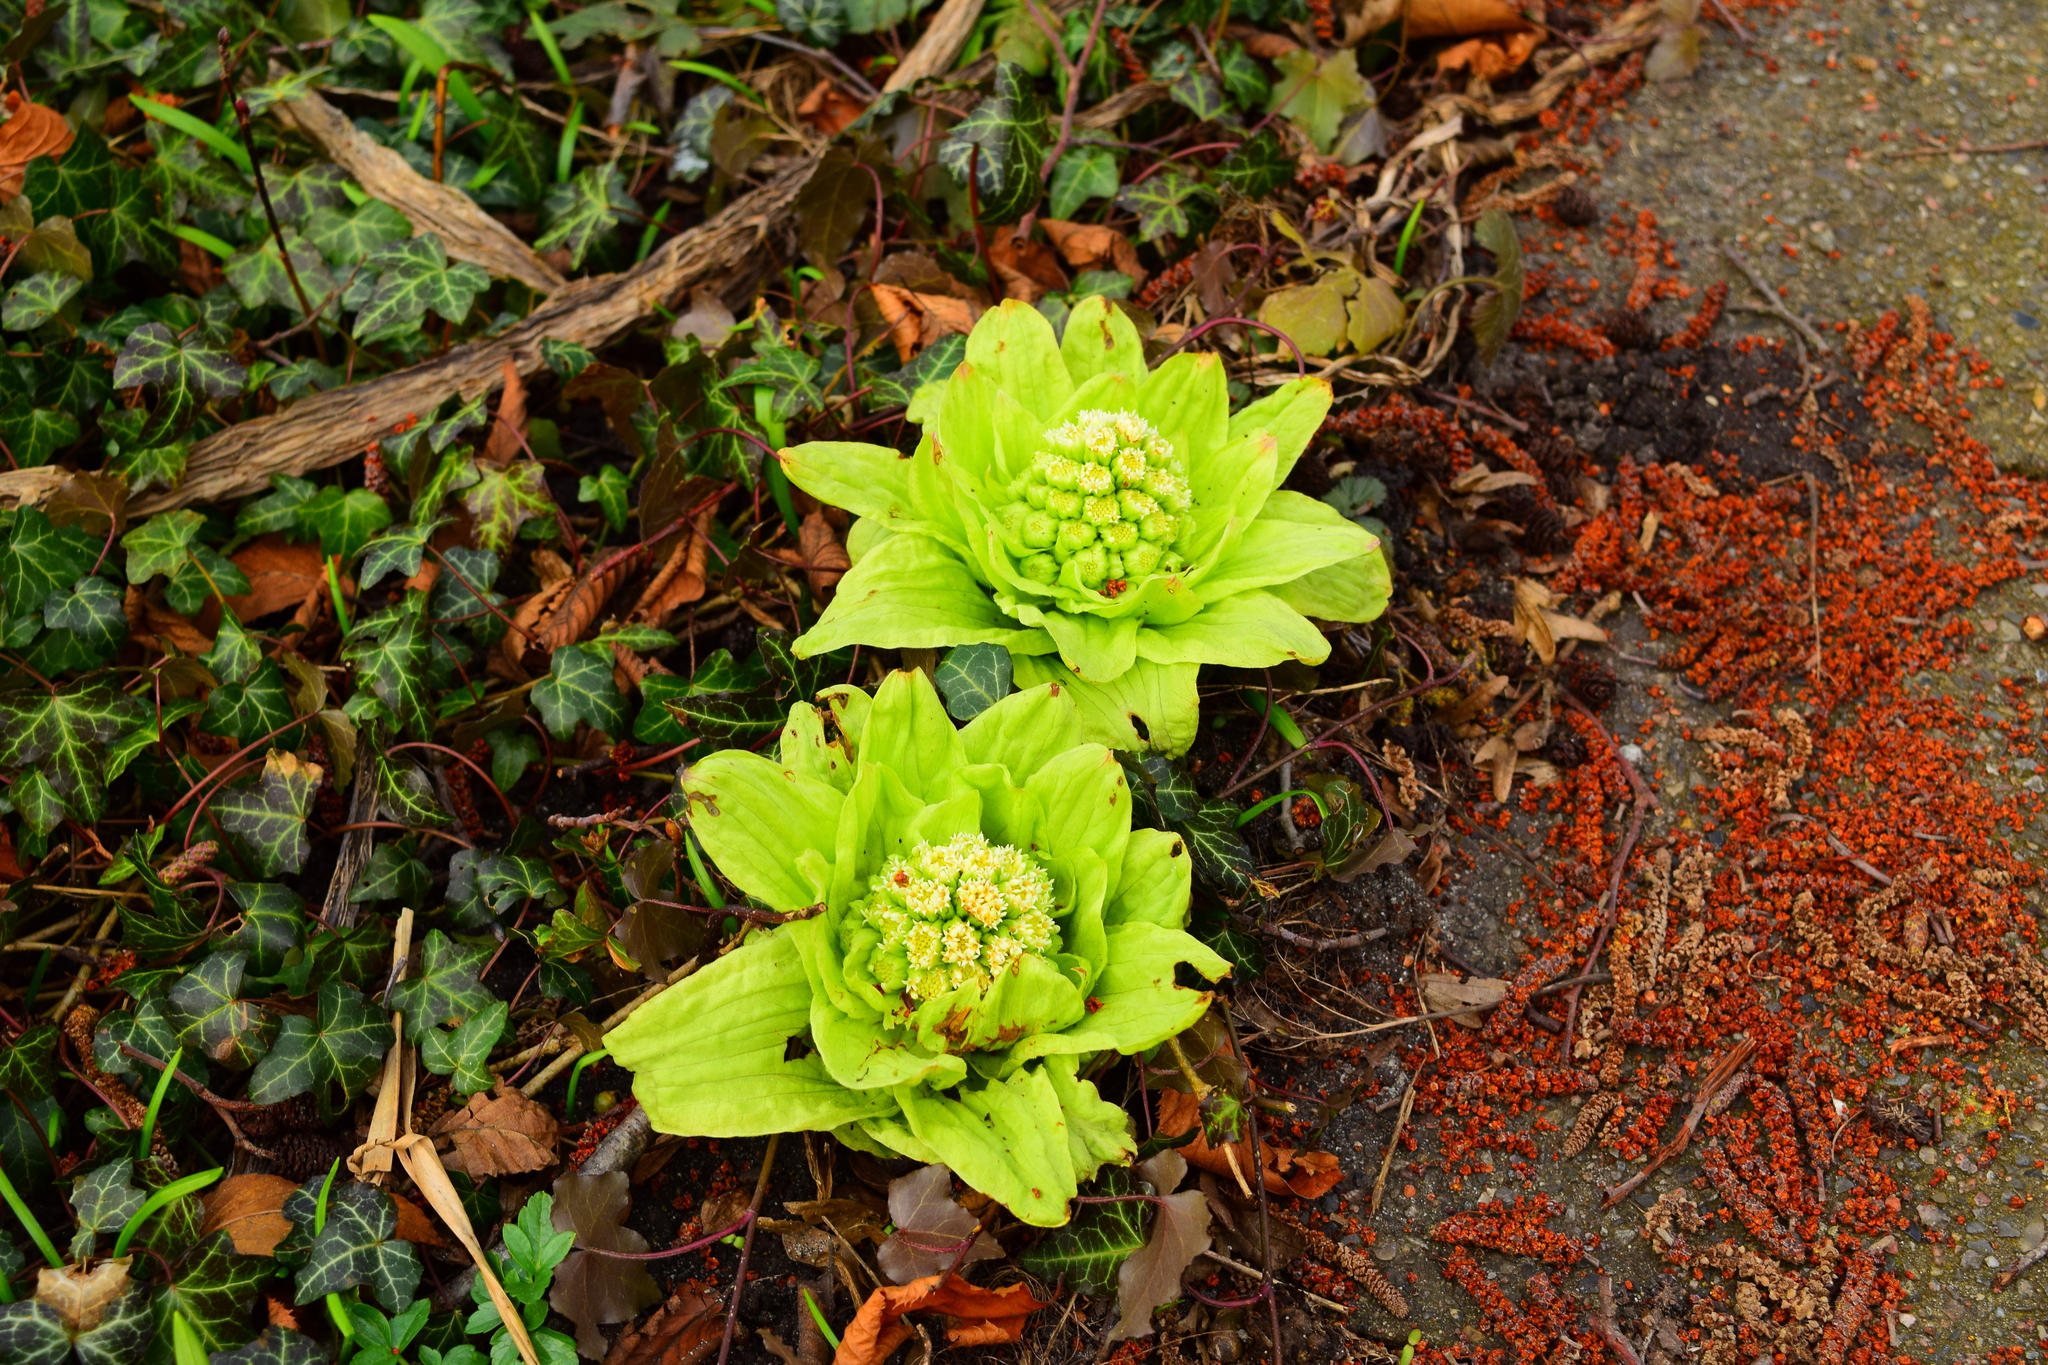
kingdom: Plantae
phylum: Tracheophyta
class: Magnoliopsida
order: Asterales
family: Asteraceae
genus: Petasites
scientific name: Petasites japonicus
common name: Giant butterbur
